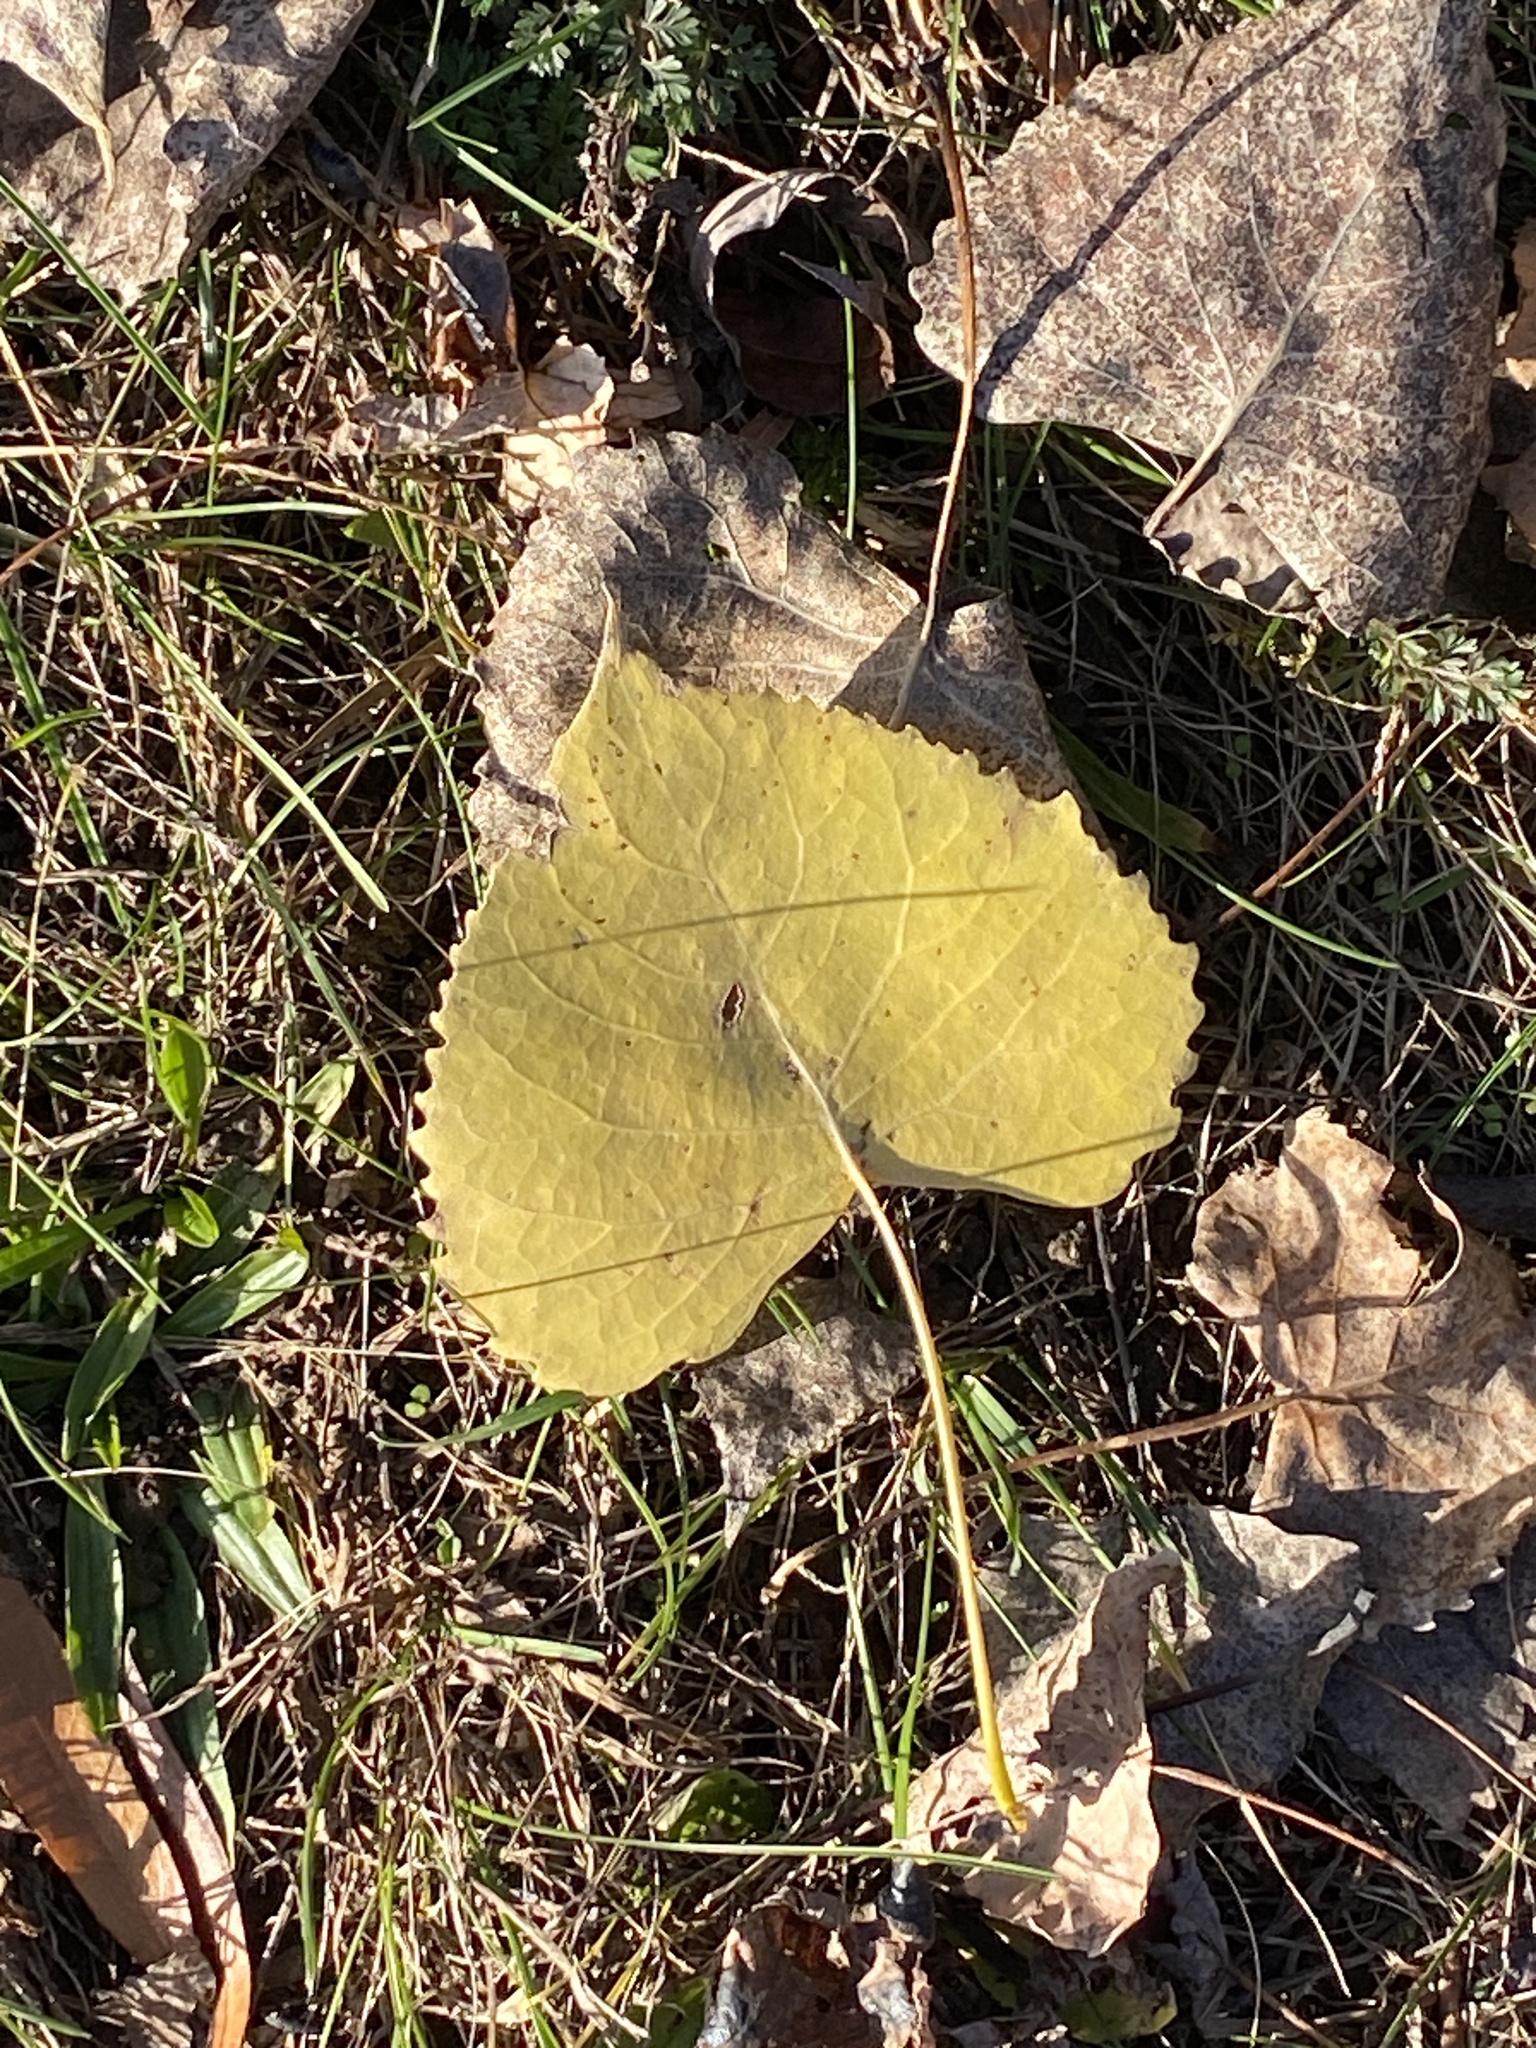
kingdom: Plantae
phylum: Tracheophyta
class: Magnoliopsida
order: Malpighiales
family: Salicaceae
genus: Populus
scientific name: Populus deltoides
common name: Eastern cottonwood
